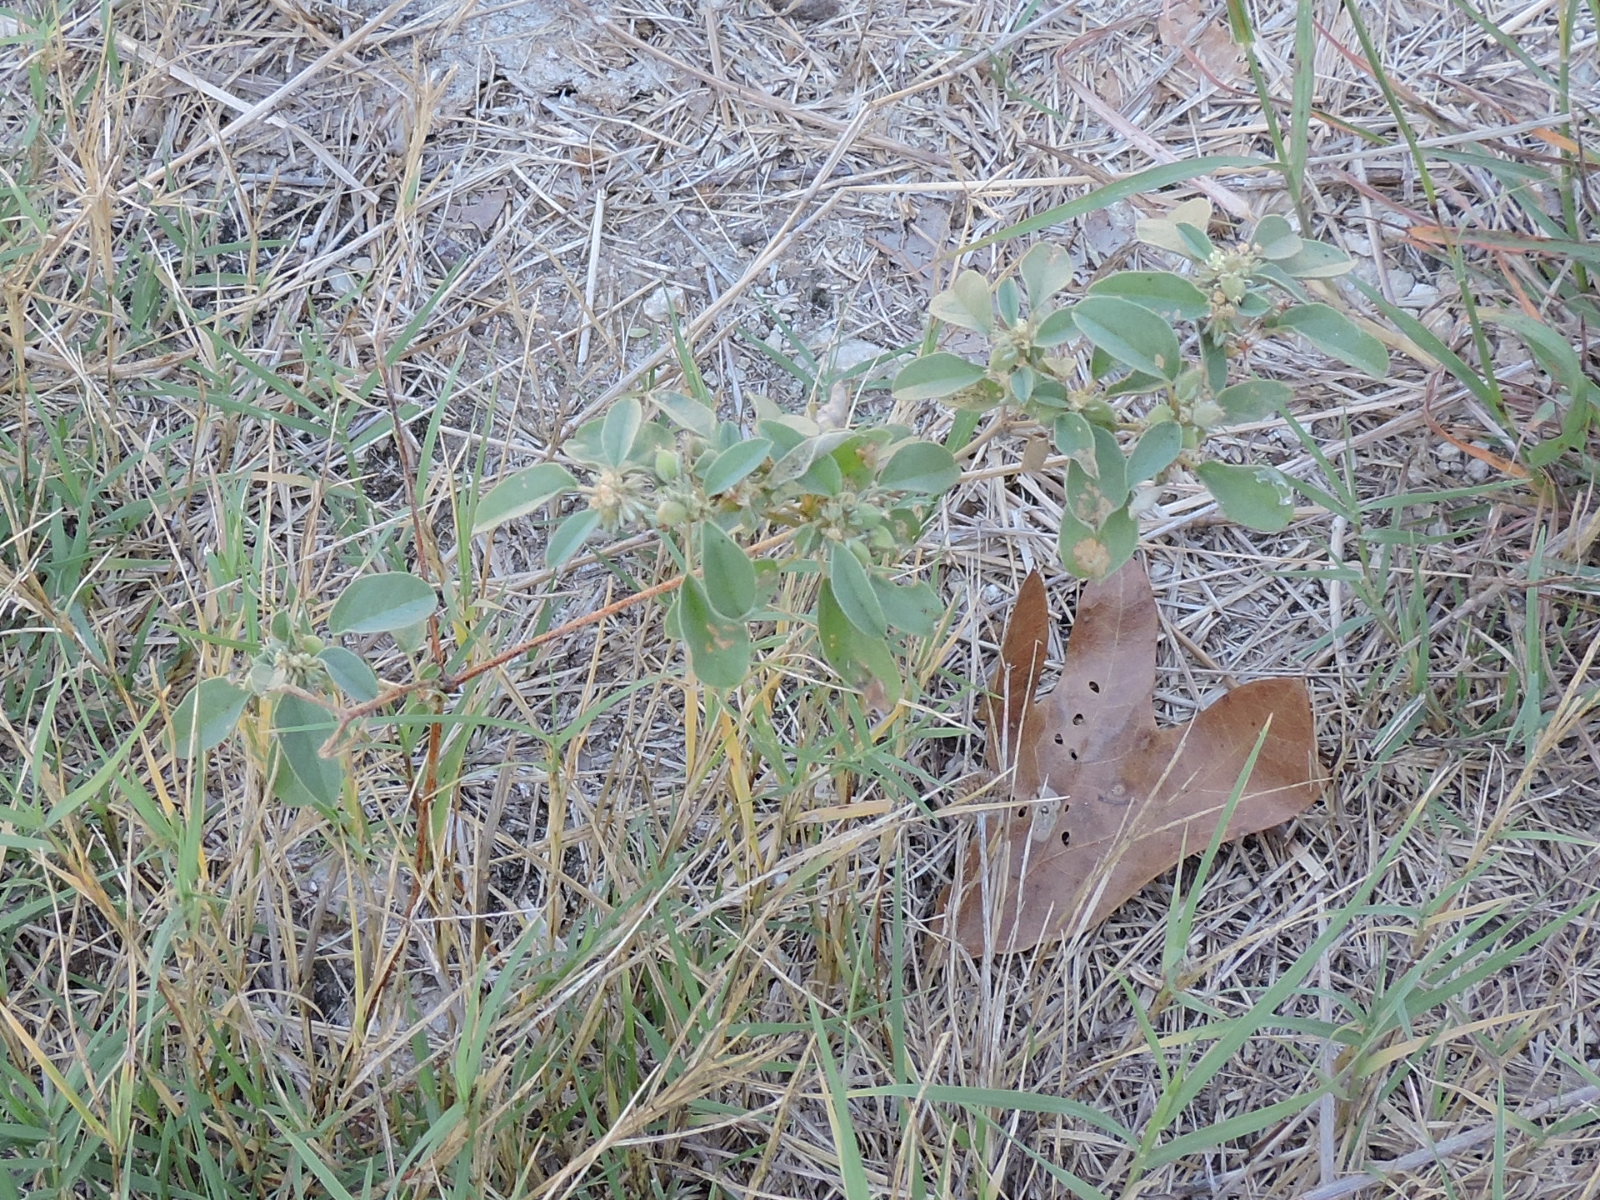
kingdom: Plantae
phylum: Tracheophyta
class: Magnoliopsida
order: Malpighiales
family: Euphorbiaceae
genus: Croton
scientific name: Croton monanthogynus
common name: One-seed croton
